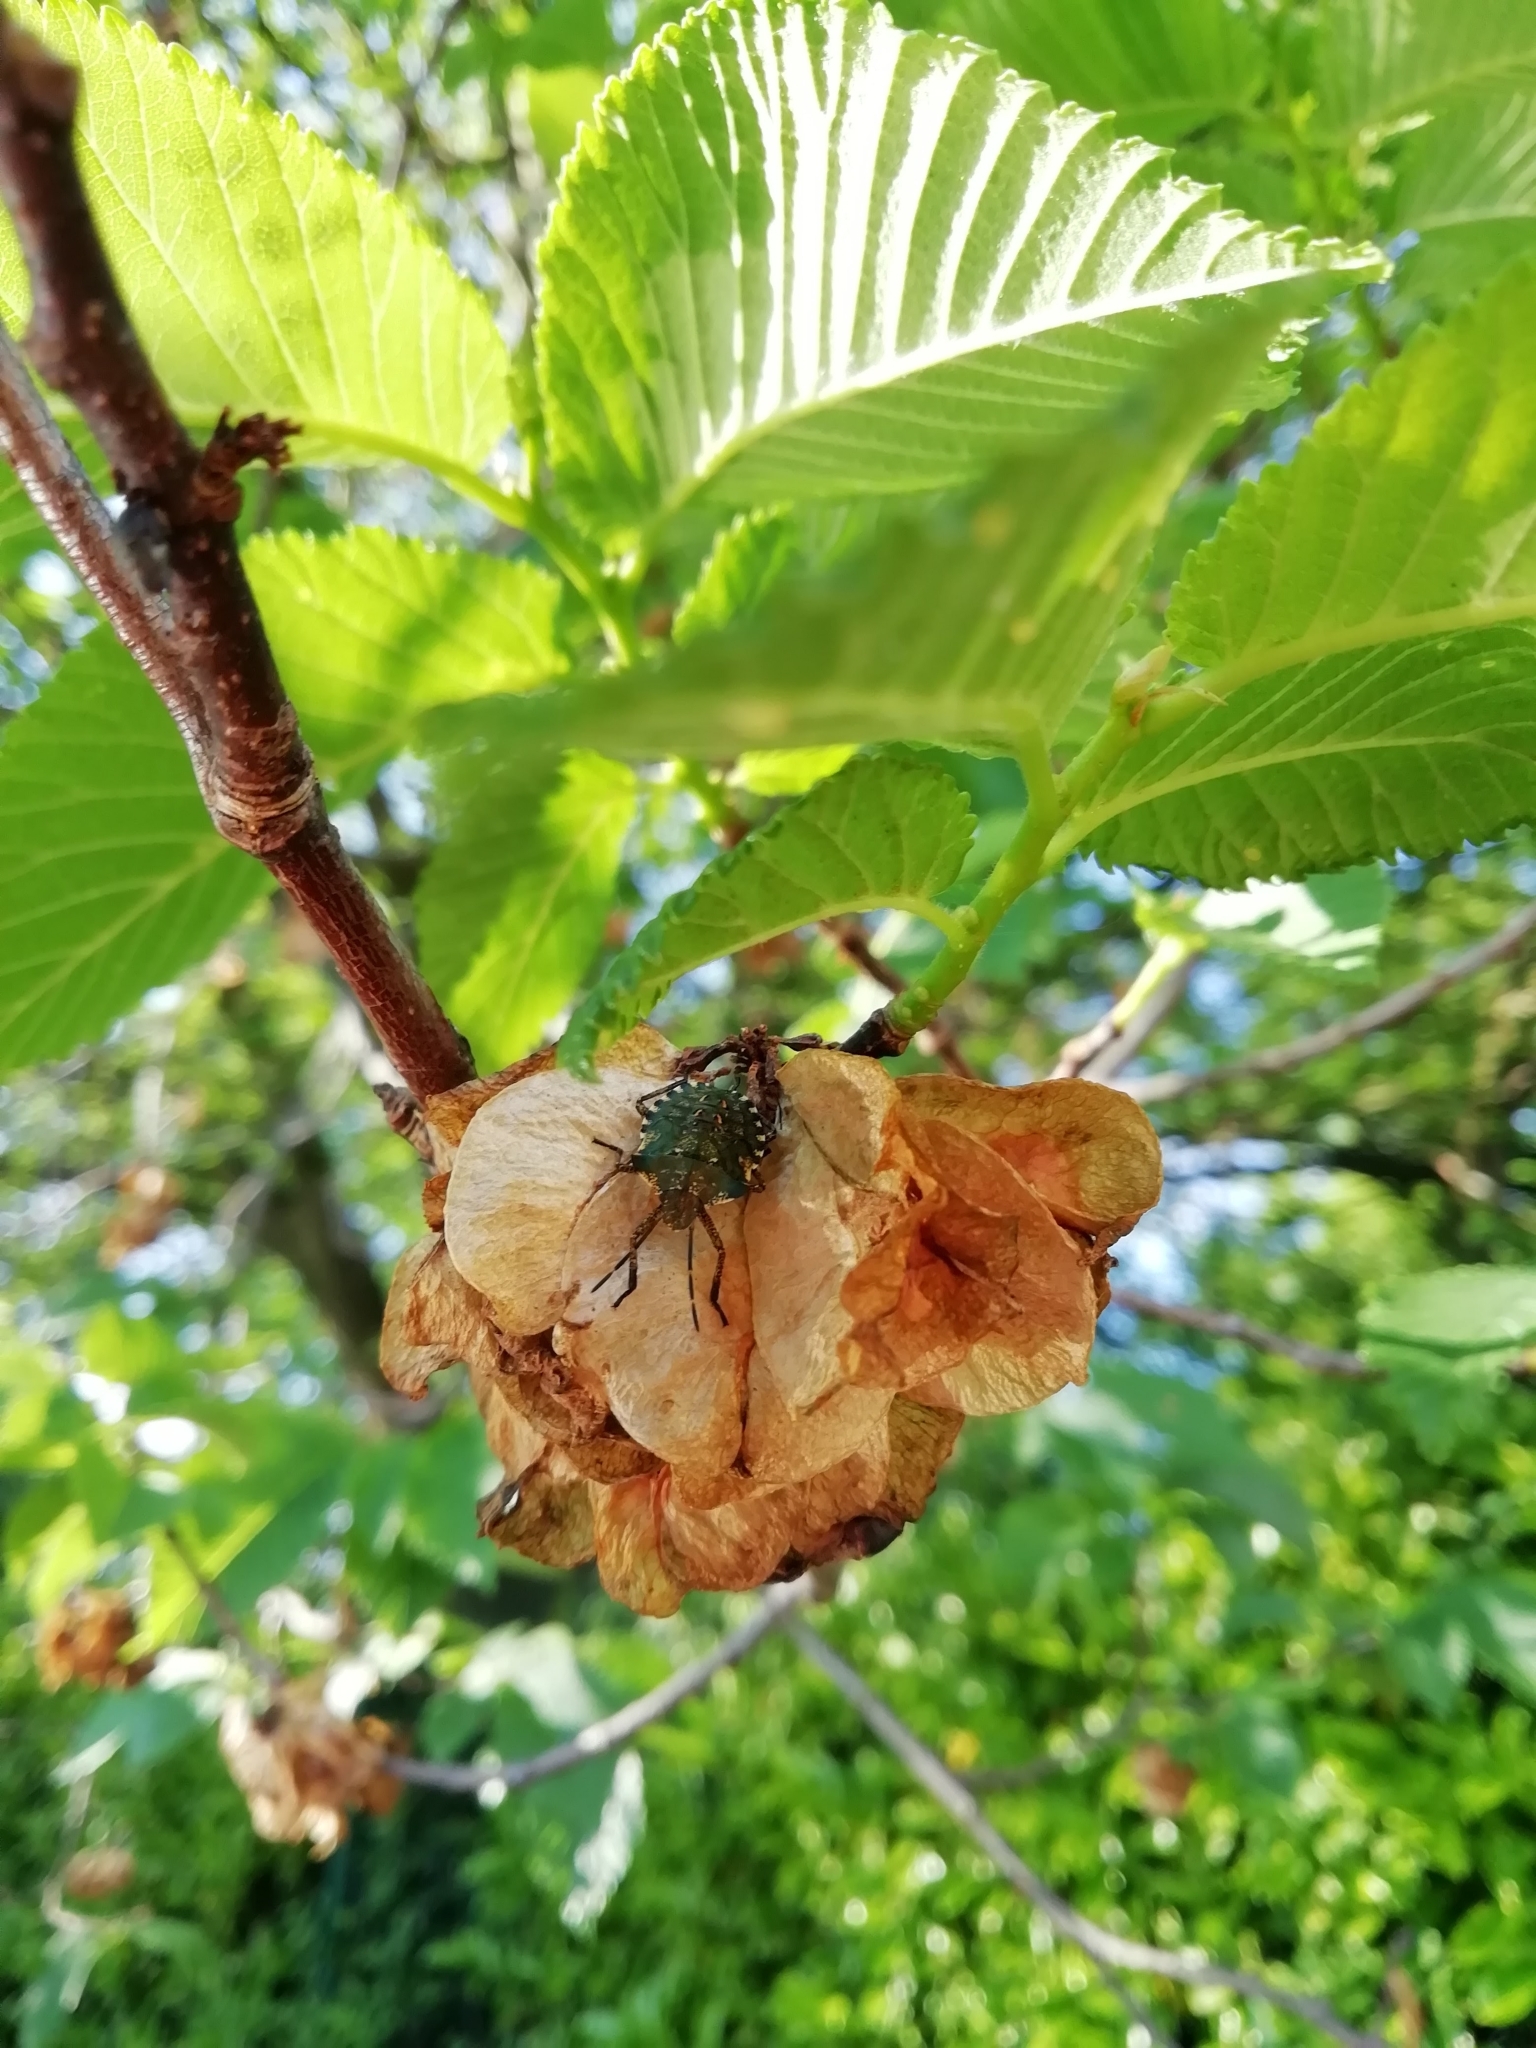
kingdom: Animalia
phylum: Arthropoda
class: Insecta
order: Hemiptera
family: Pentatomidae
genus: Pentatoma
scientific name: Pentatoma rufipes
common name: Forest bug
